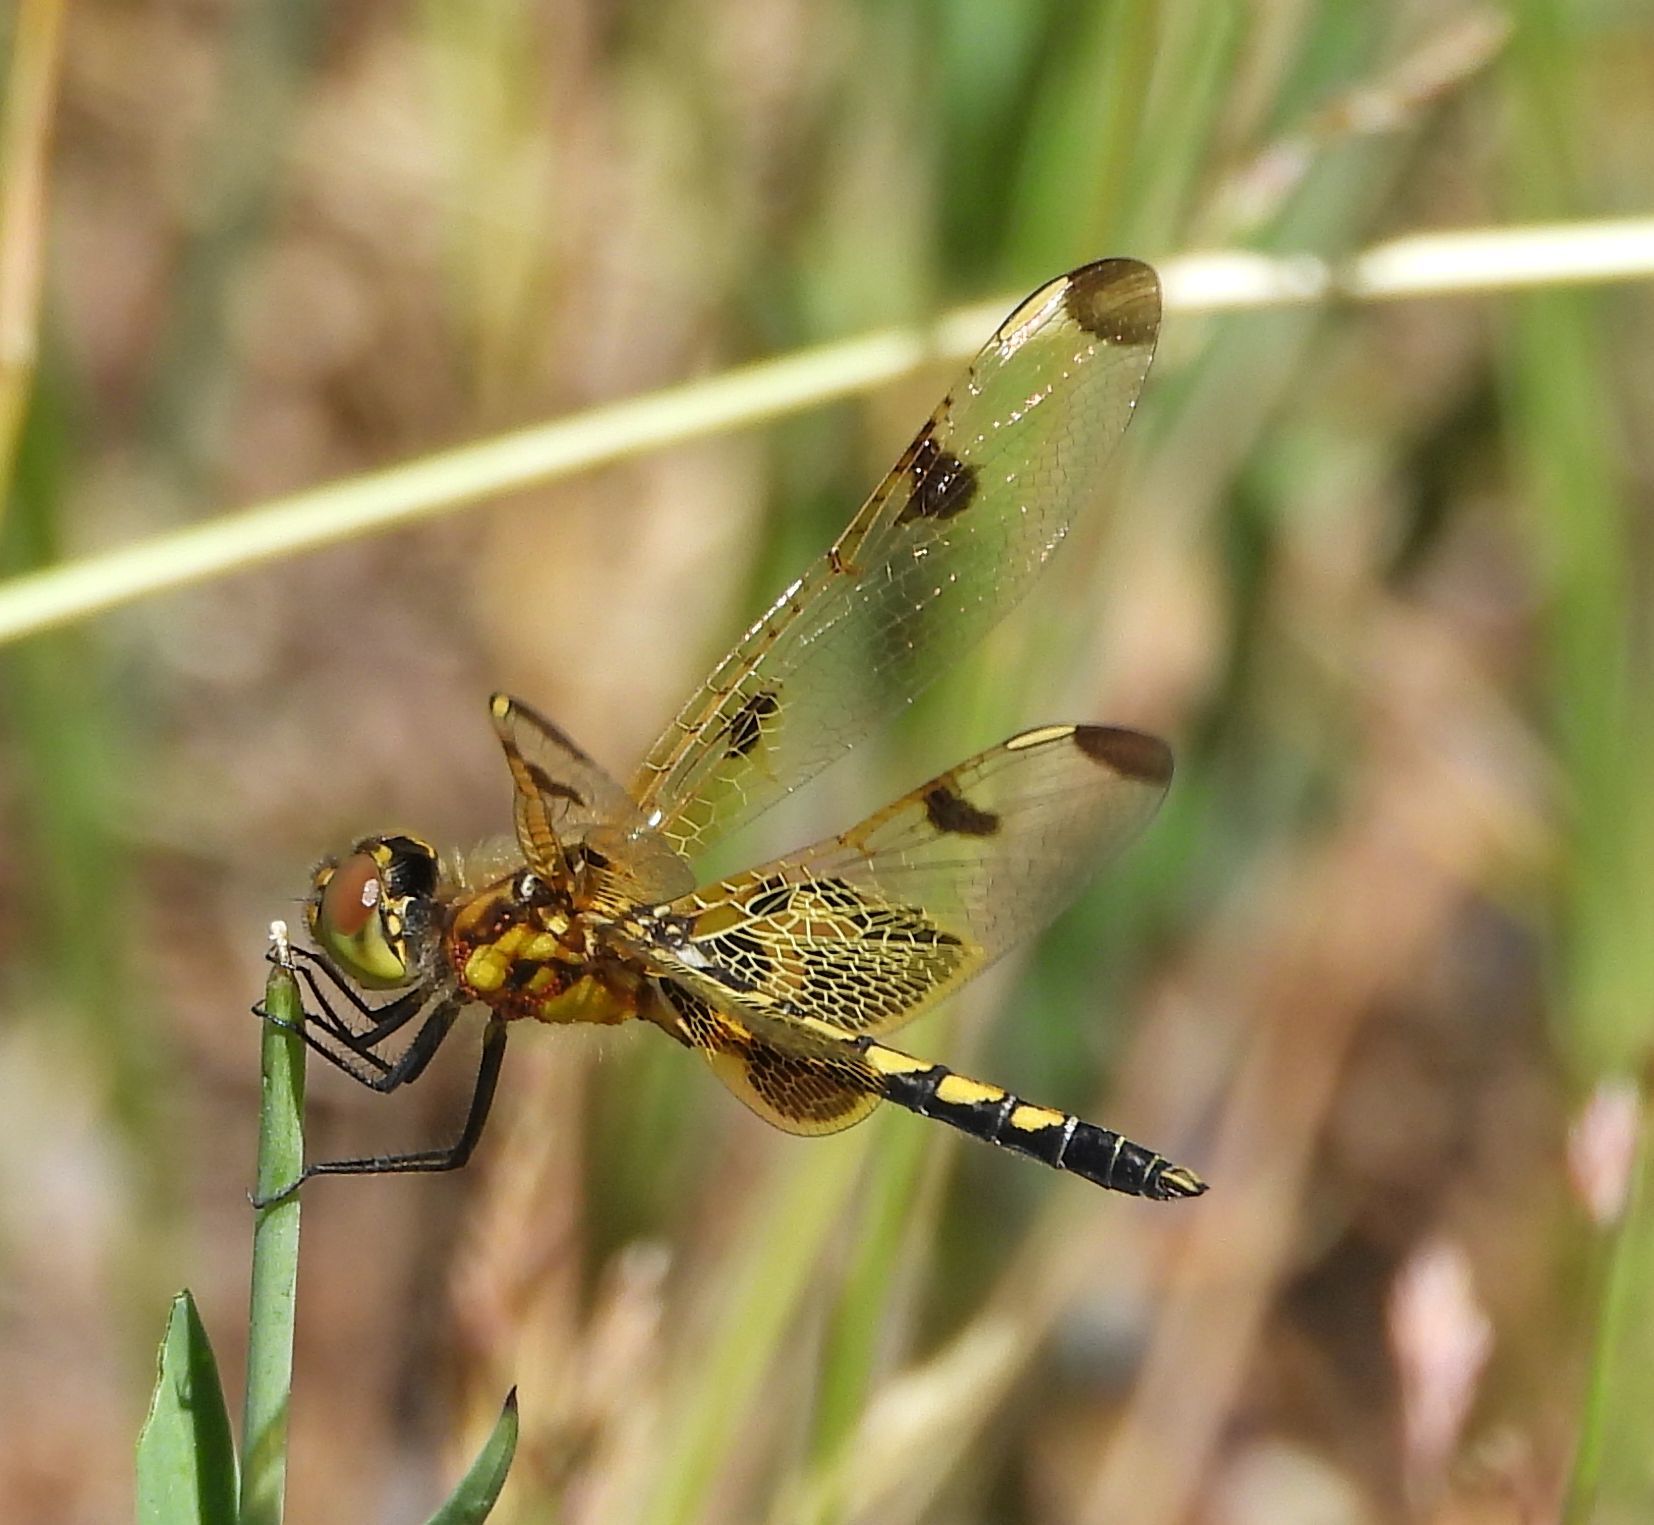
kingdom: Animalia
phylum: Arthropoda
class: Insecta
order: Odonata
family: Libellulidae
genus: Celithemis
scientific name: Celithemis elisa
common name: Calico pennant
